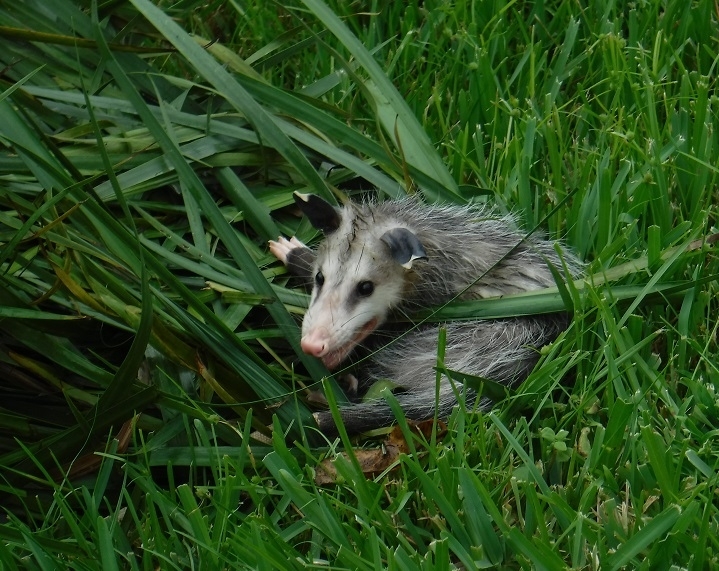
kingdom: Animalia
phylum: Chordata
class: Mammalia
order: Didelphimorphia
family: Didelphidae
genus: Didelphis
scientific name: Didelphis virginiana
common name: Virginia opossum
